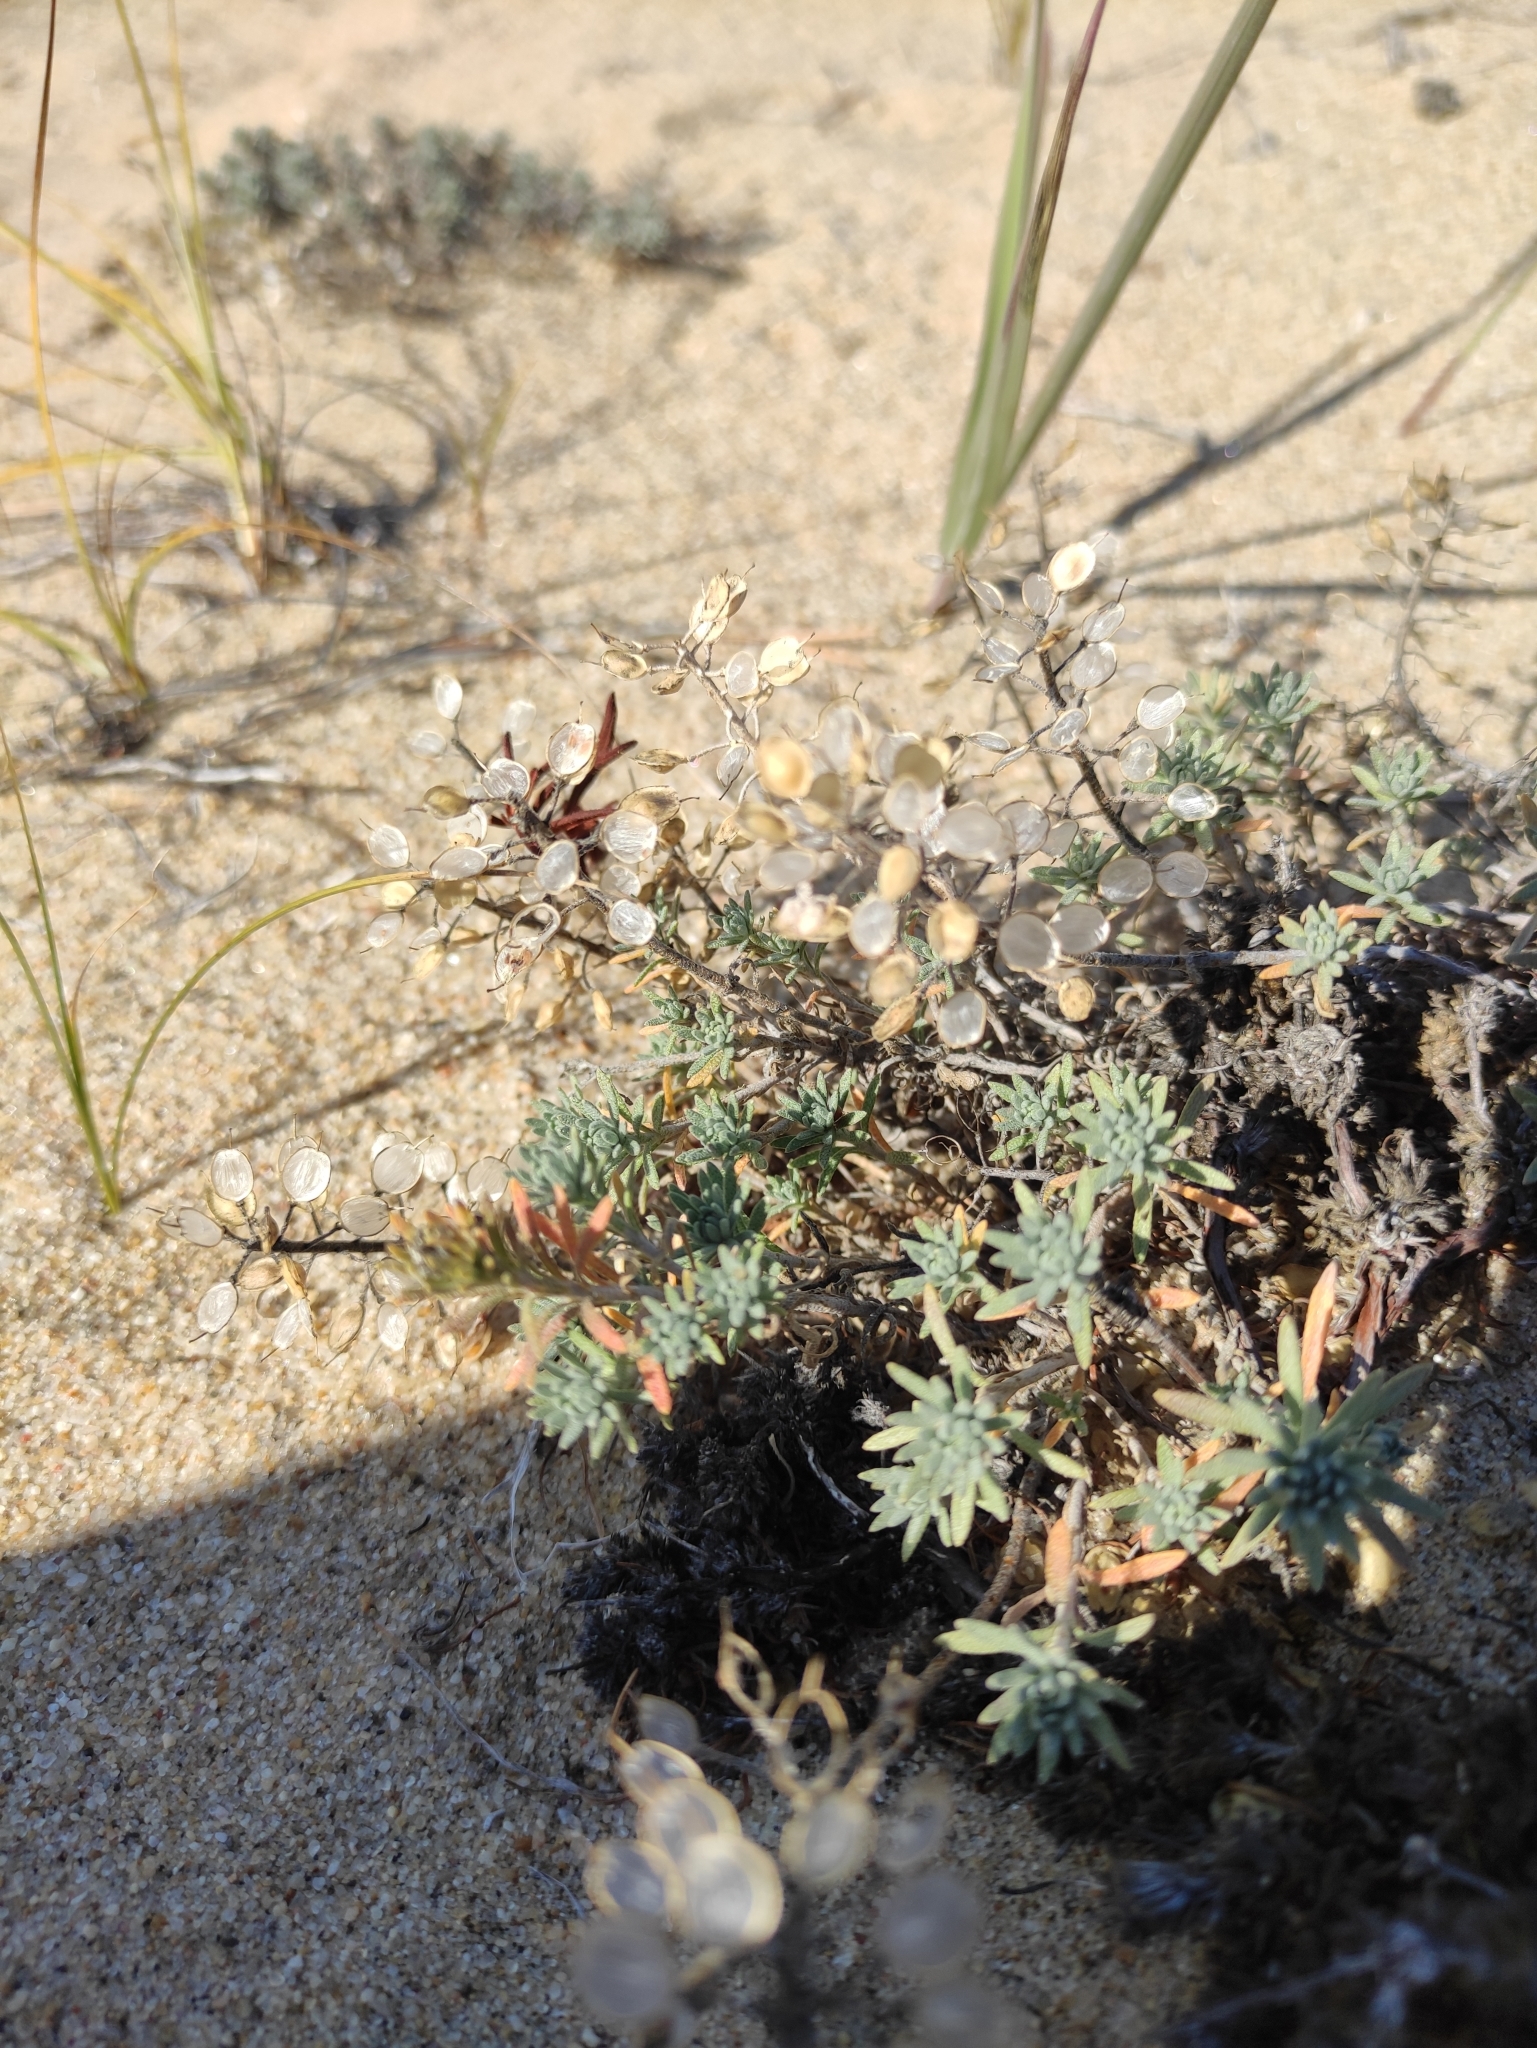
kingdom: Plantae
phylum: Tracheophyta
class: Magnoliopsida
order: Brassicales
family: Brassicaceae
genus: Alyssum
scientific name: Alyssum lenense
